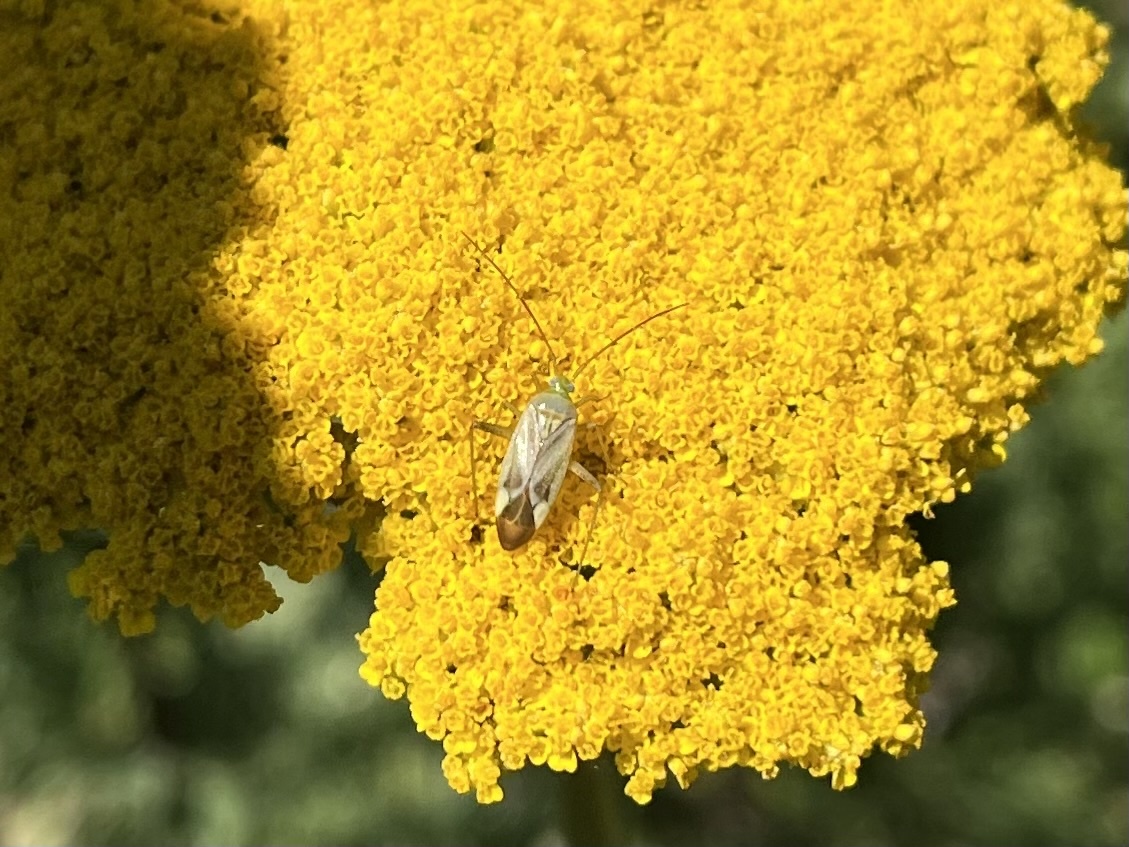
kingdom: Animalia
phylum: Arthropoda
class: Insecta
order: Hemiptera
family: Miridae
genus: Adelphocoris
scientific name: Adelphocoris lineolatus
